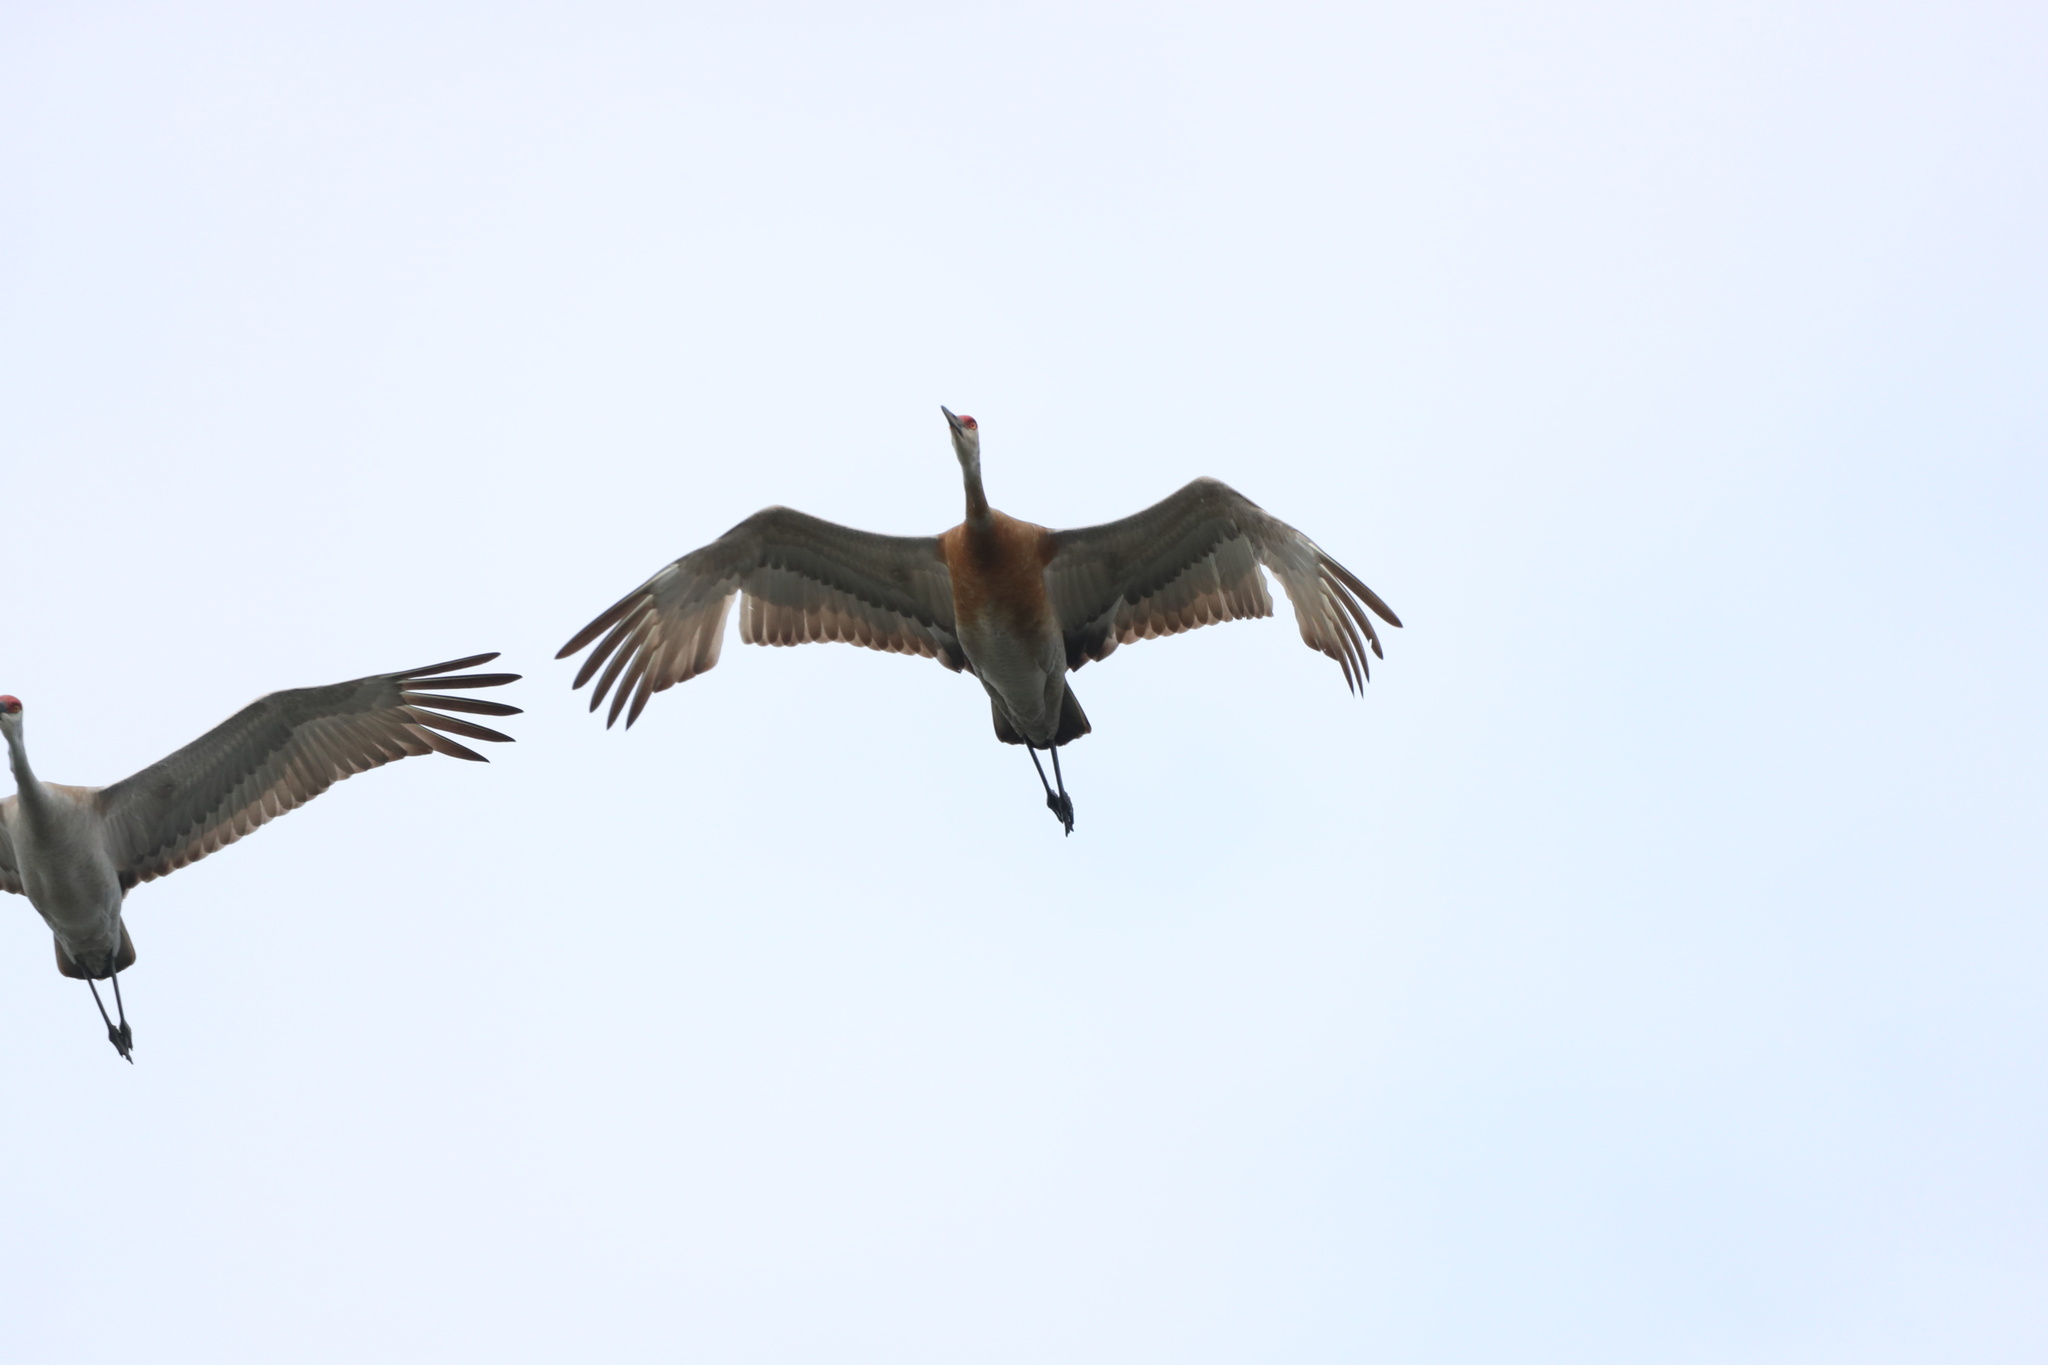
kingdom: Animalia
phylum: Chordata
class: Aves
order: Gruiformes
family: Gruidae
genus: Grus
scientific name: Grus canadensis
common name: Sandhill crane
